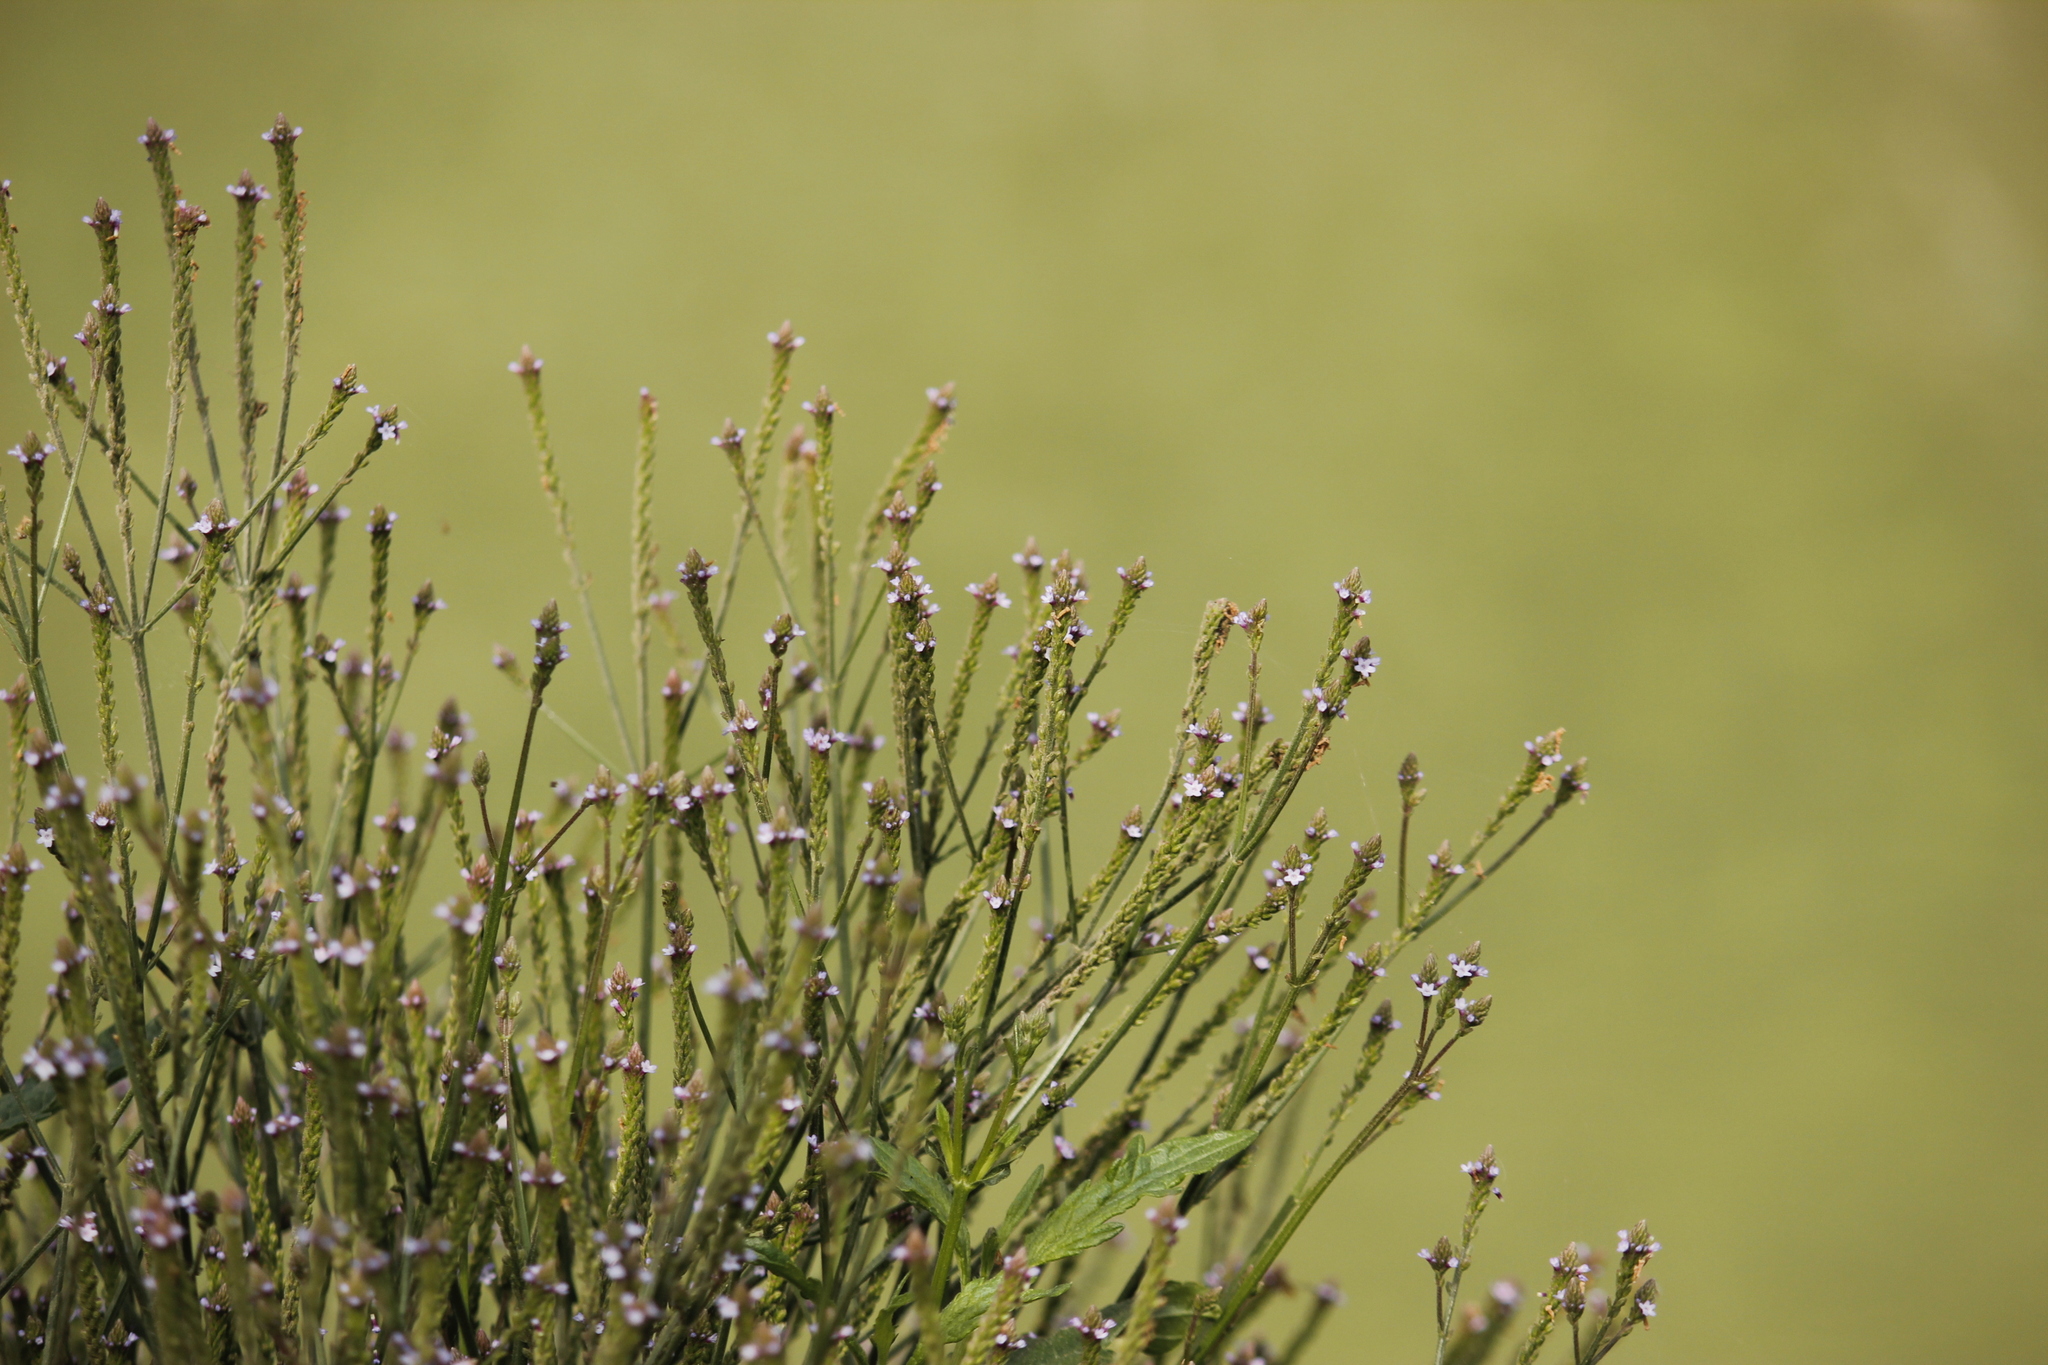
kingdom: Plantae
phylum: Tracheophyta
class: Magnoliopsida
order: Lamiales
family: Verbenaceae
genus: Verbena
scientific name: Verbena litoralis
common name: Seashore vervain
